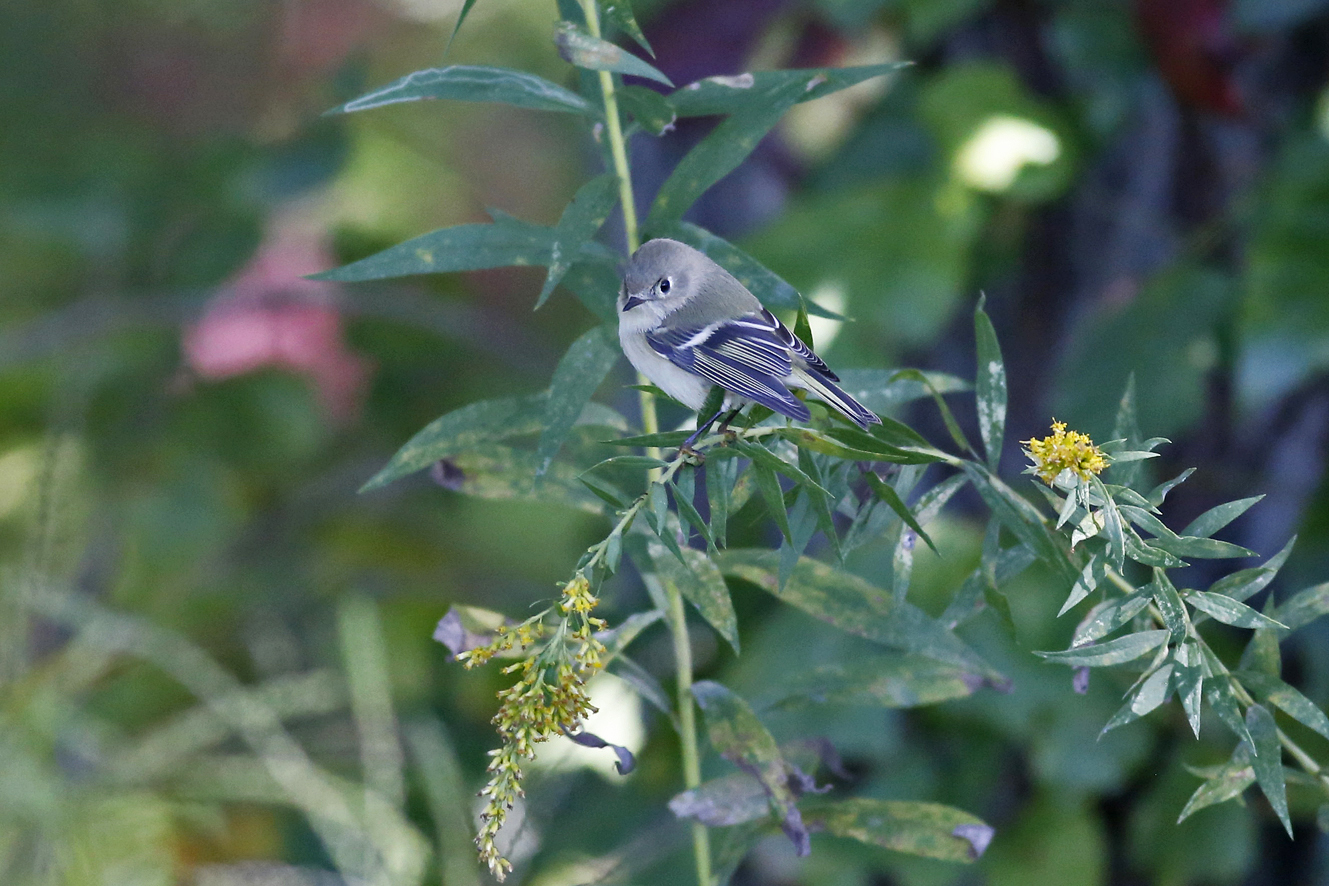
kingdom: Animalia
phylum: Chordata
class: Aves
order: Passeriformes
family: Regulidae
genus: Regulus
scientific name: Regulus calendula
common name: Ruby-crowned kinglet
